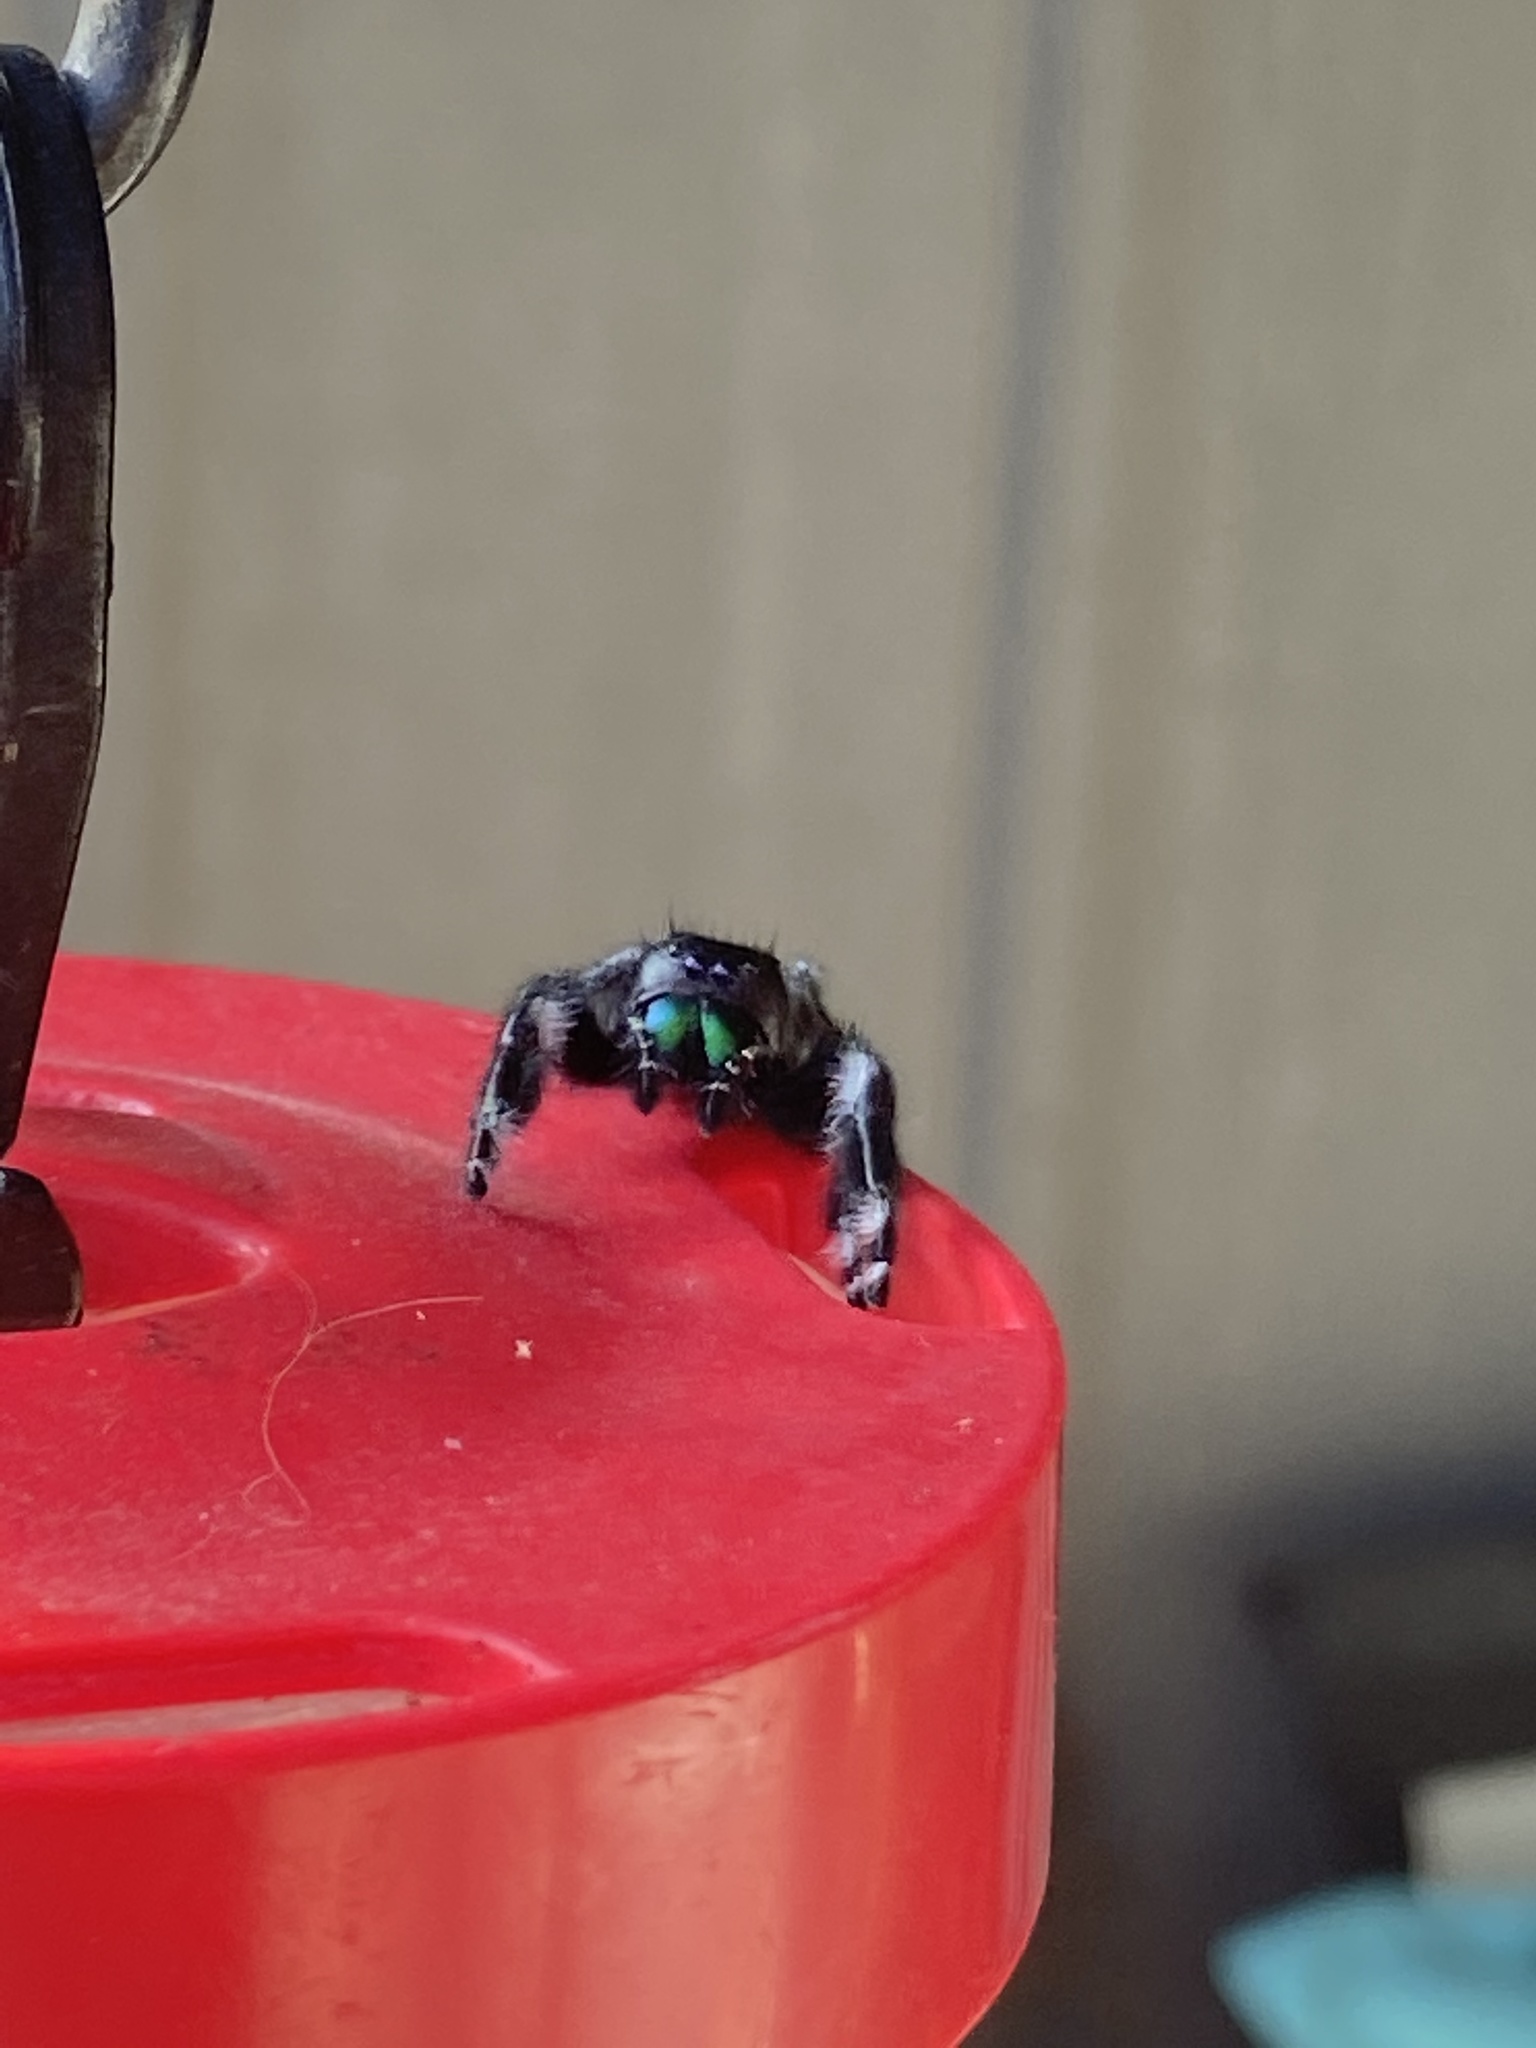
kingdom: Animalia
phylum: Arthropoda
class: Arachnida
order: Araneae
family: Salticidae
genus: Phidippus
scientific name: Phidippus audax
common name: Bold jumper
